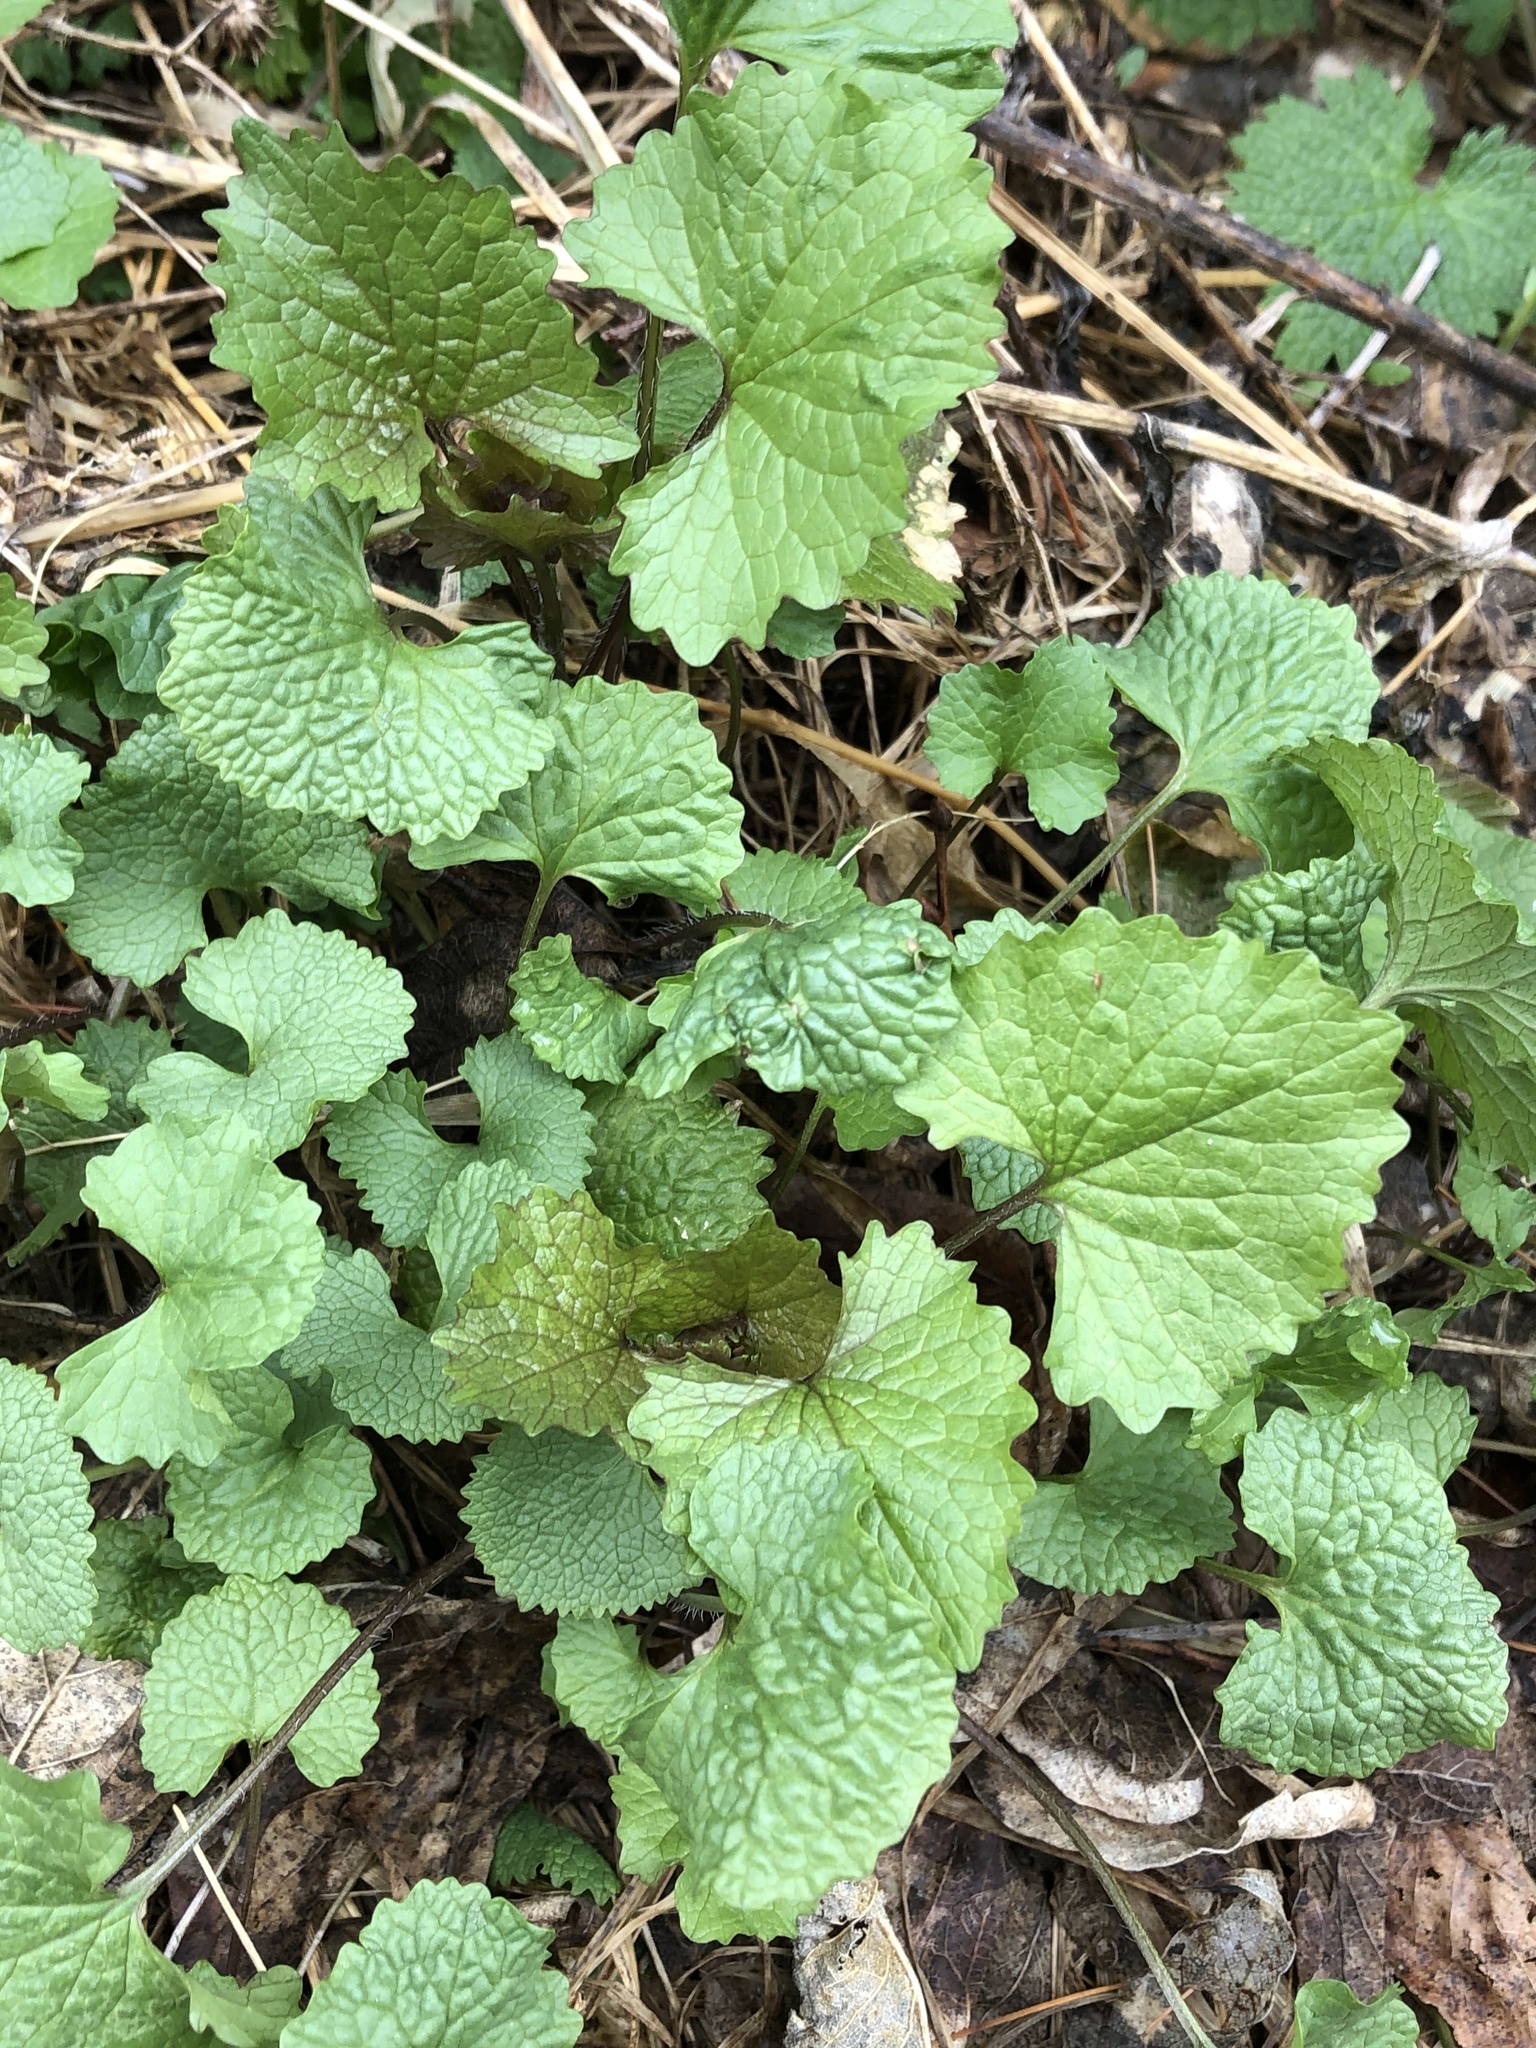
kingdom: Plantae
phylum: Tracheophyta
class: Magnoliopsida
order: Brassicales
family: Brassicaceae
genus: Alliaria
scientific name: Alliaria petiolata
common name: Garlic mustard
